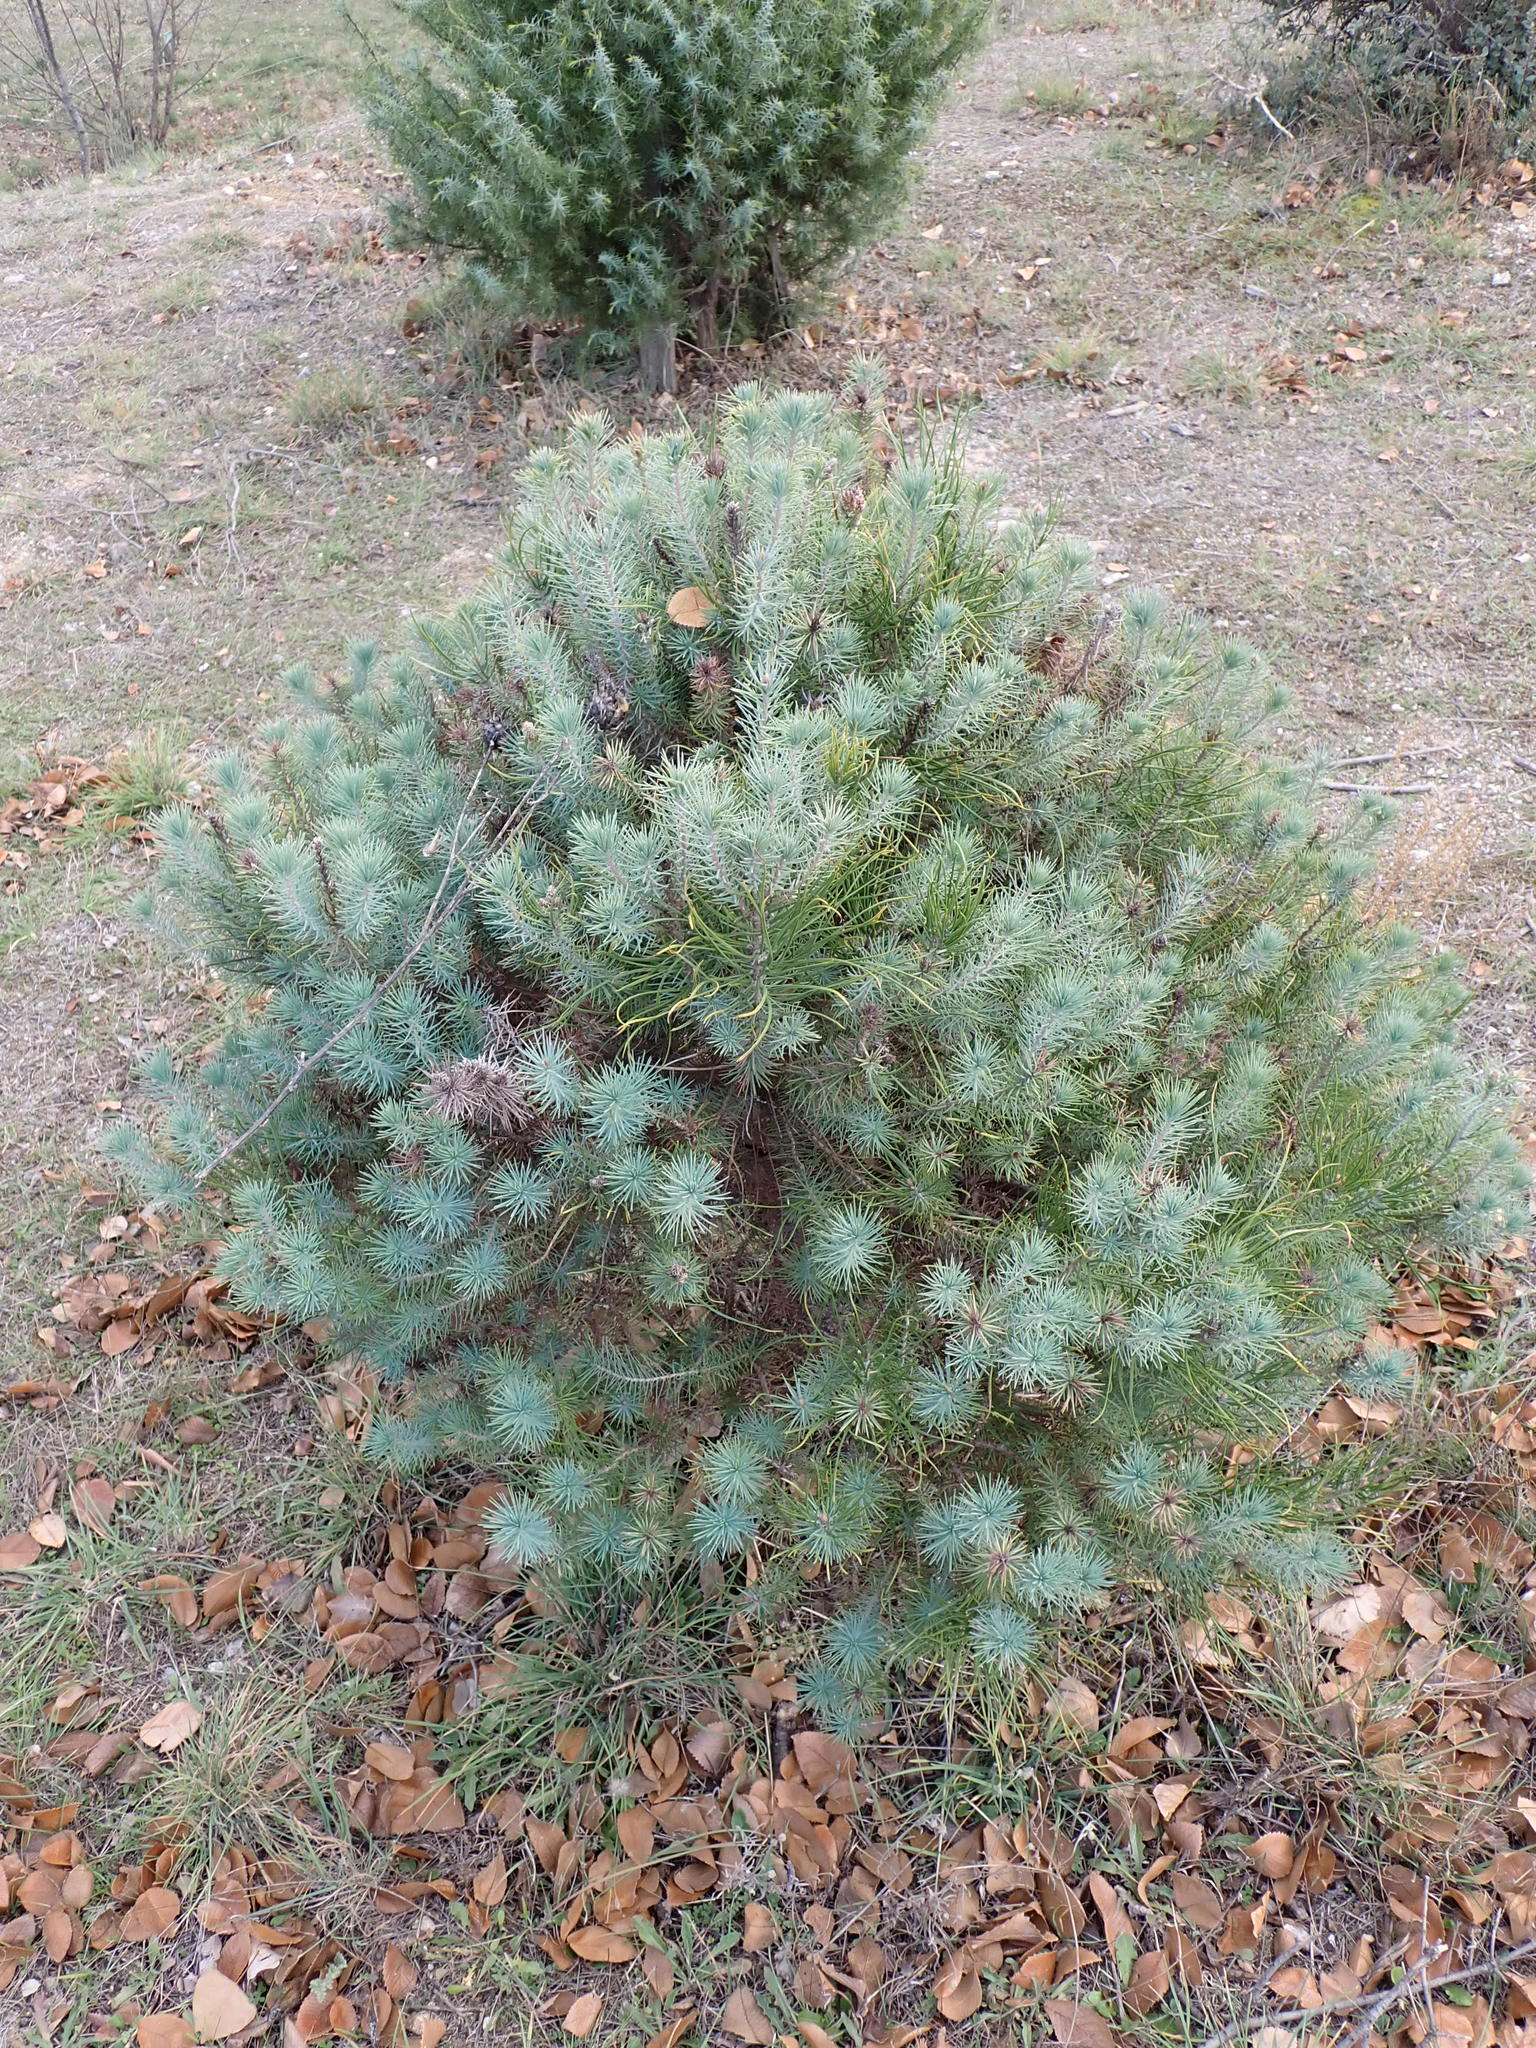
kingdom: Plantae
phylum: Tracheophyta
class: Pinopsida
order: Pinales
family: Pinaceae
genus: Pinus
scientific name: Pinus pinea
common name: Italian stone pine
